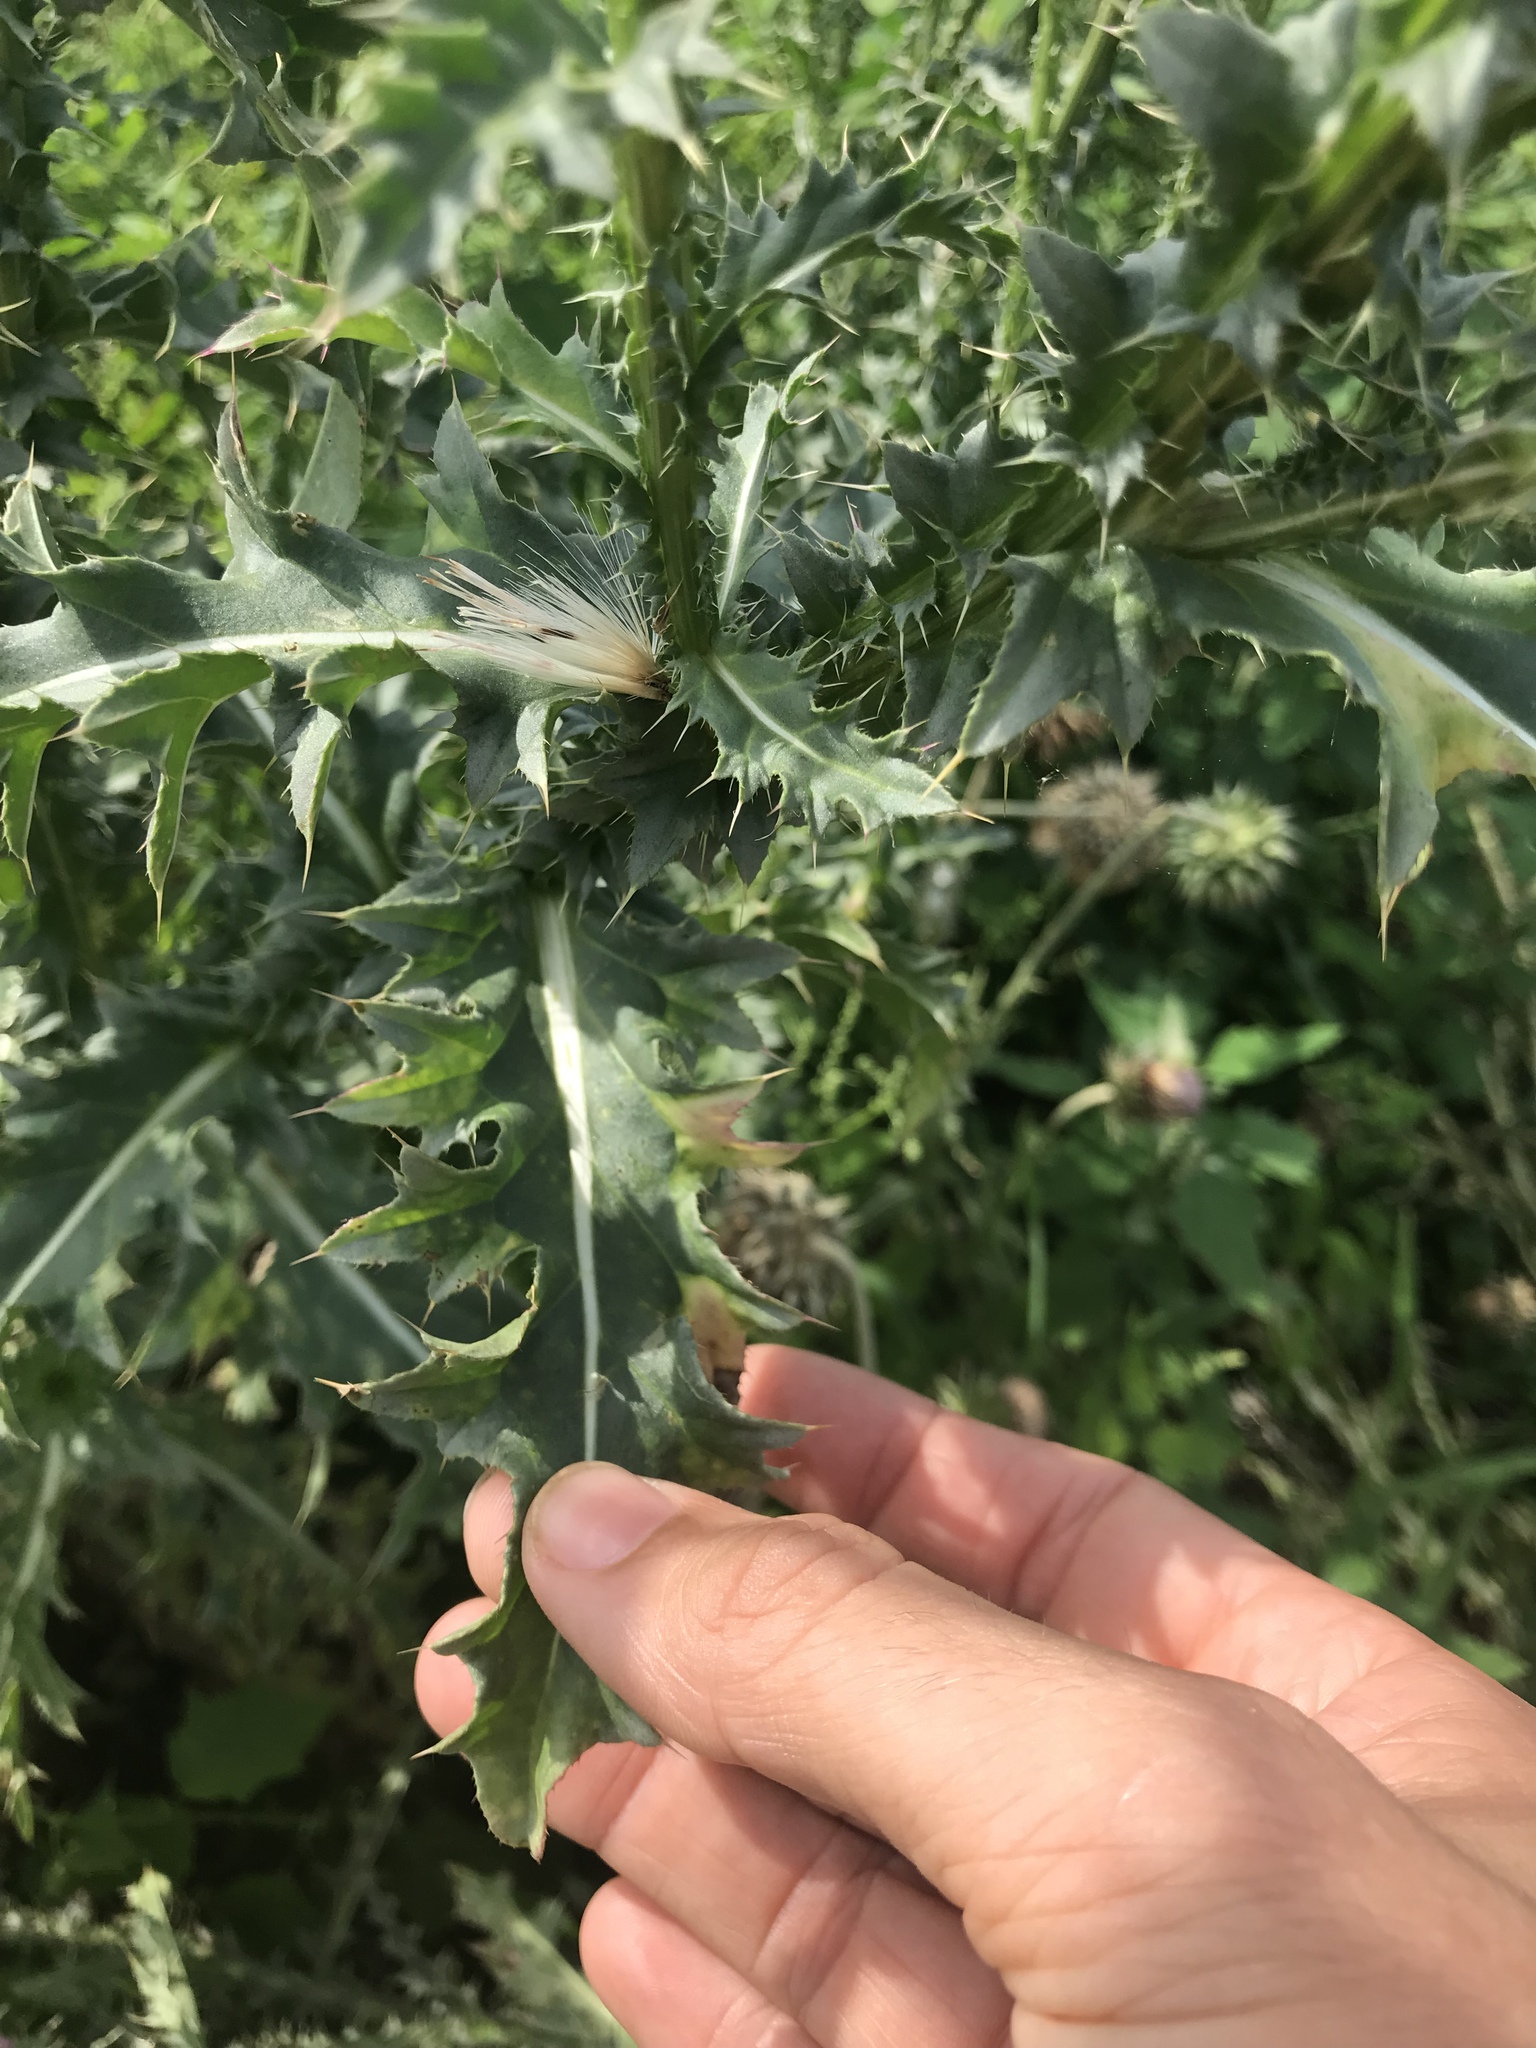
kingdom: Plantae
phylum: Tracheophyta
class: Magnoliopsida
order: Asterales
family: Asteraceae
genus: Carduus
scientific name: Carduus nutans
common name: Musk thistle
